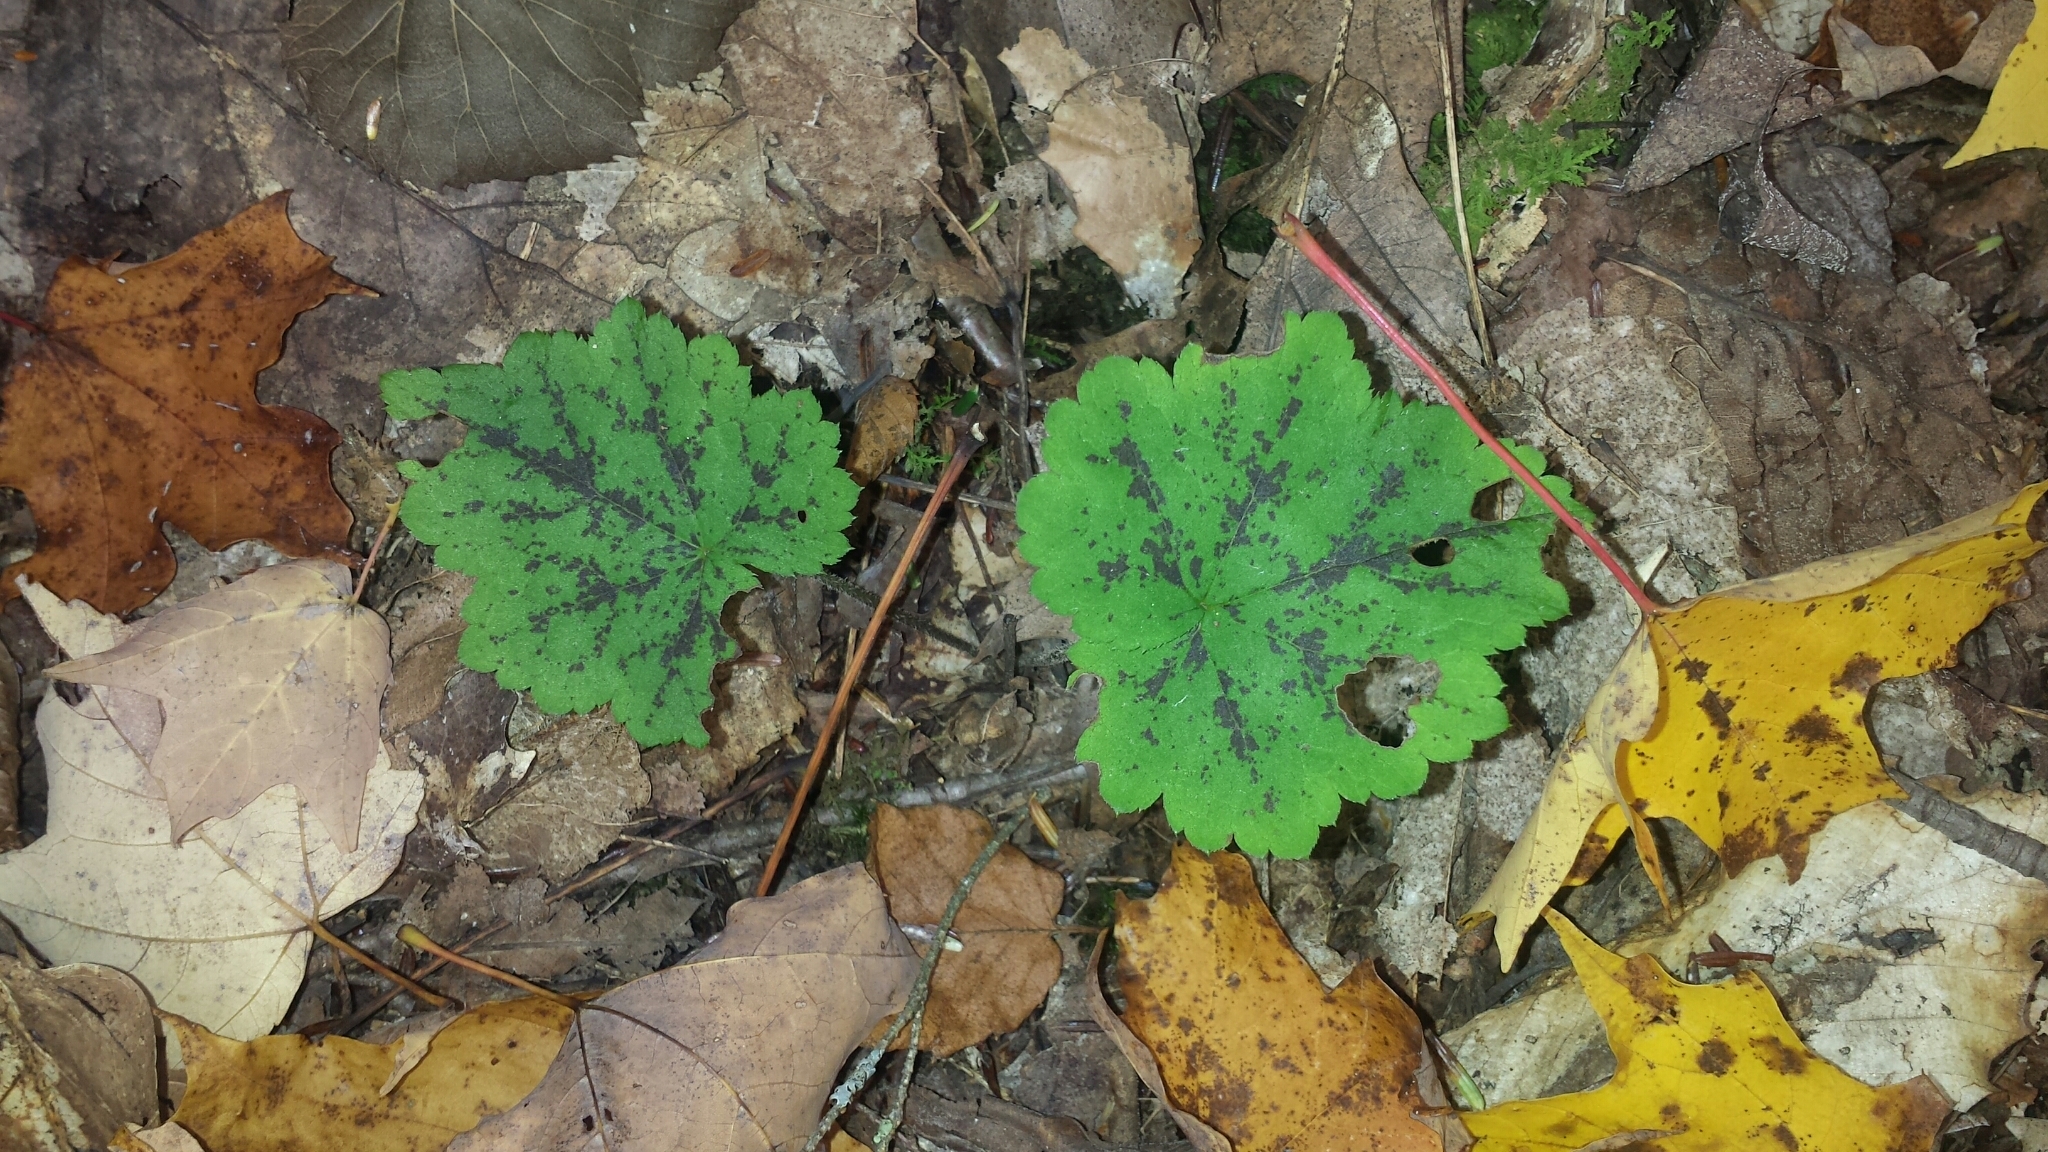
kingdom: Plantae
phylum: Tracheophyta
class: Magnoliopsida
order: Saxifragales
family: Saxifragaceae
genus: Tiarella
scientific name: Tiarella stolonifera
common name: Stoloniferous foamflower
